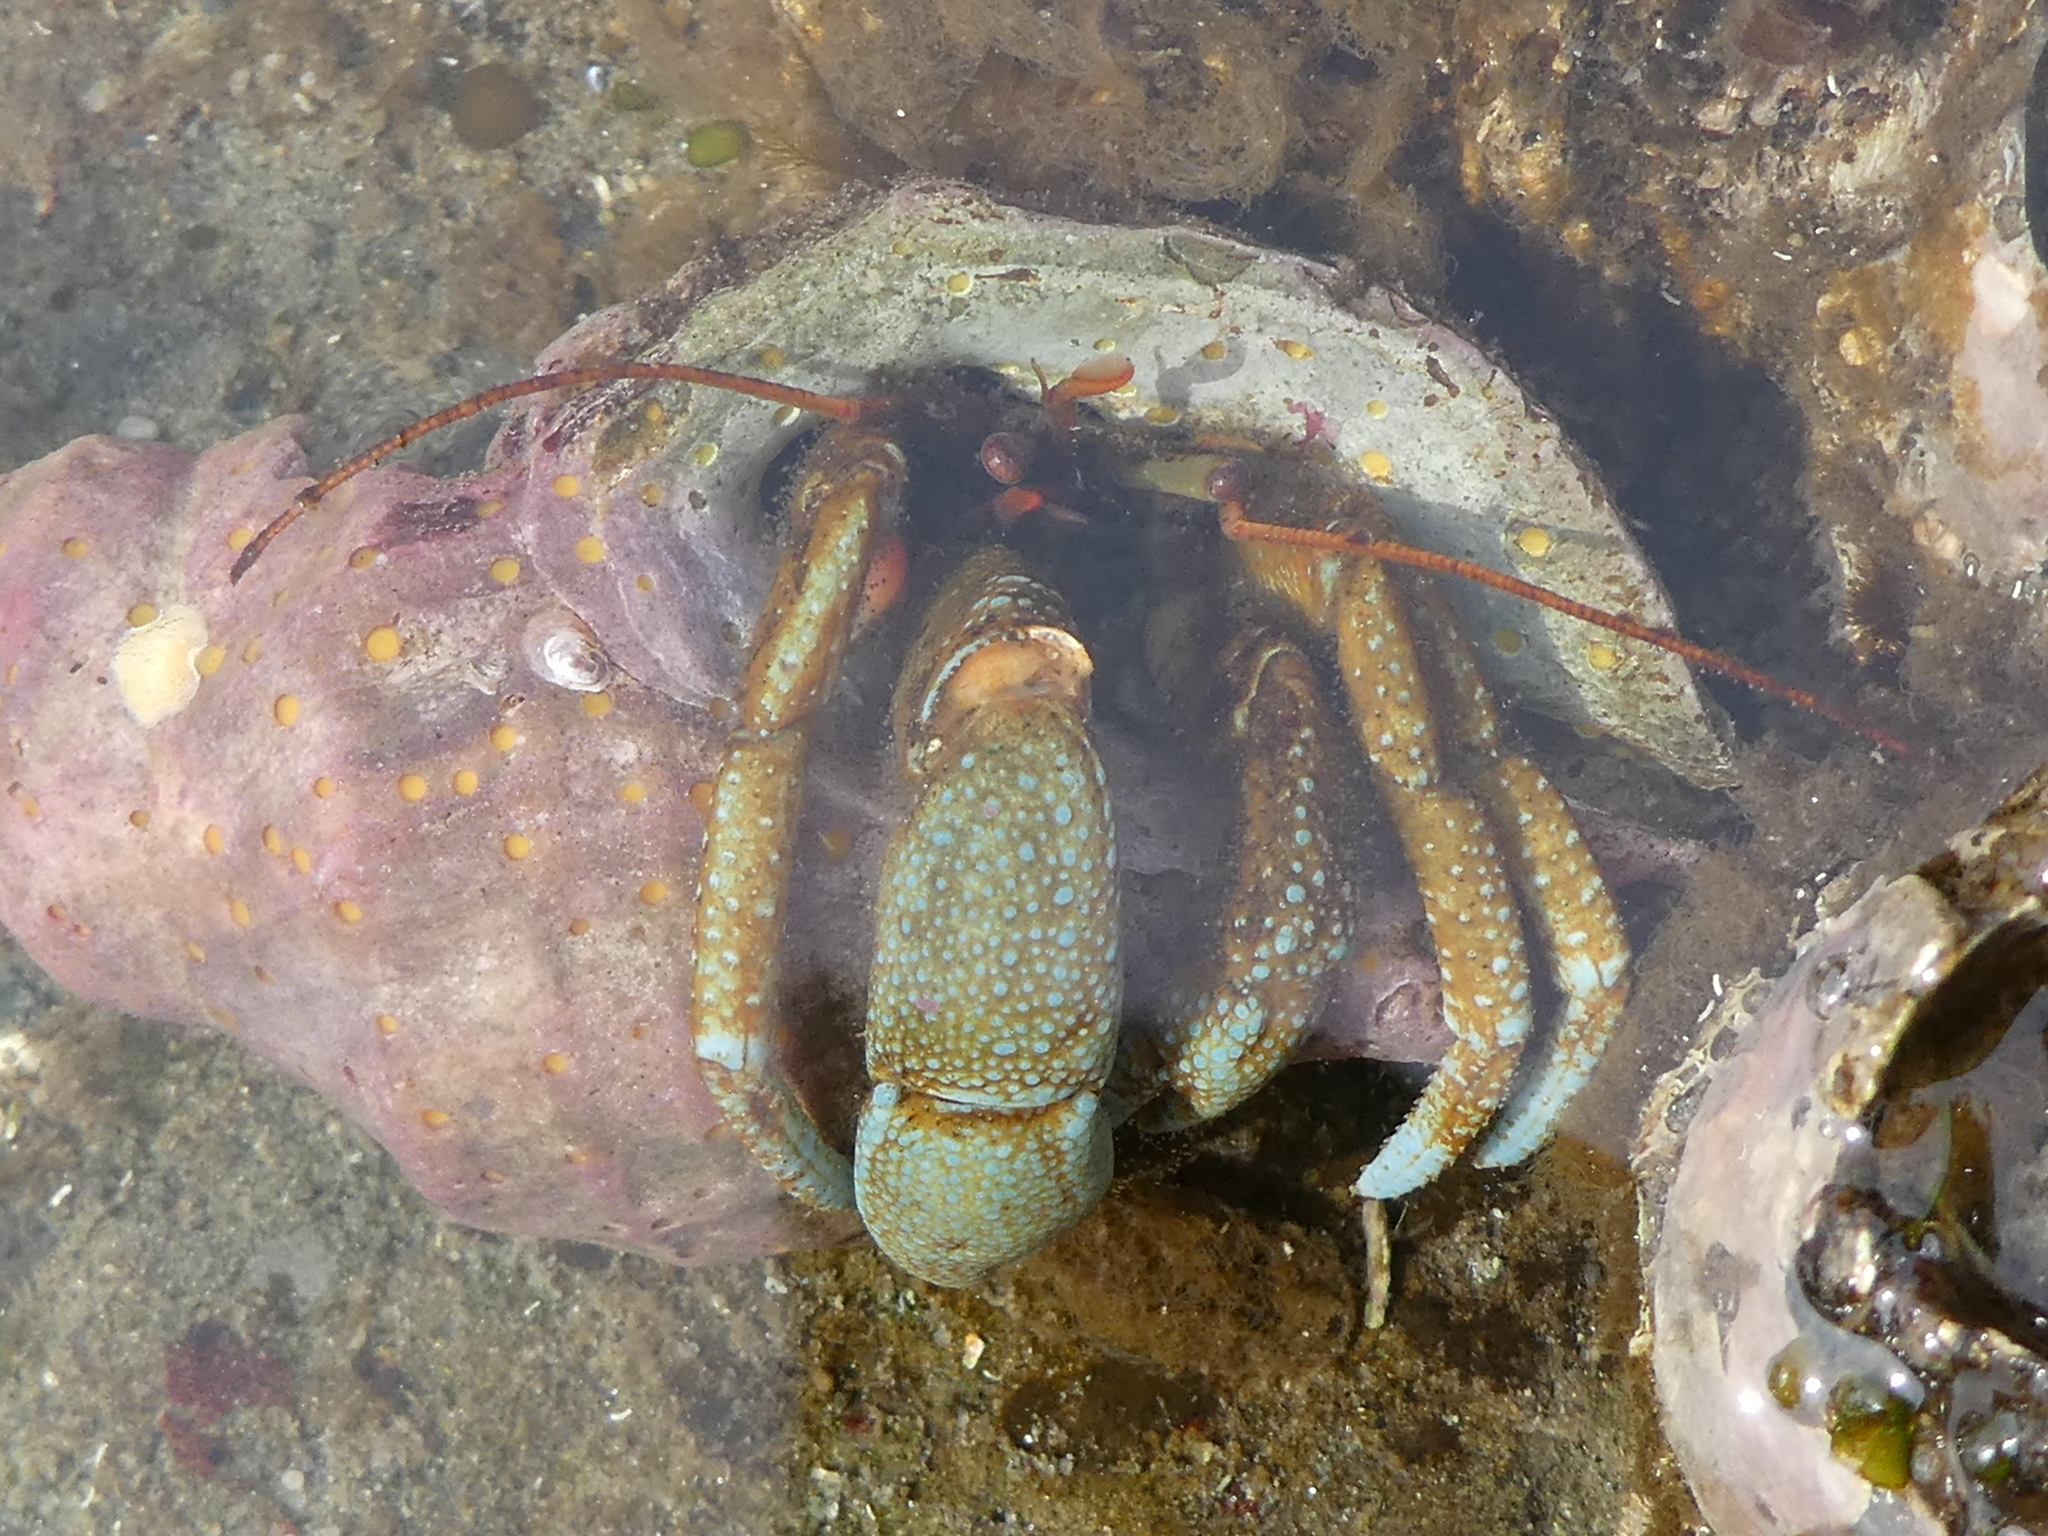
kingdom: Animalia
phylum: Arthropoda
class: Malacostraca
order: Decapoda
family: Paguridae
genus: Pagurus
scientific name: Pagurus granosimanus
